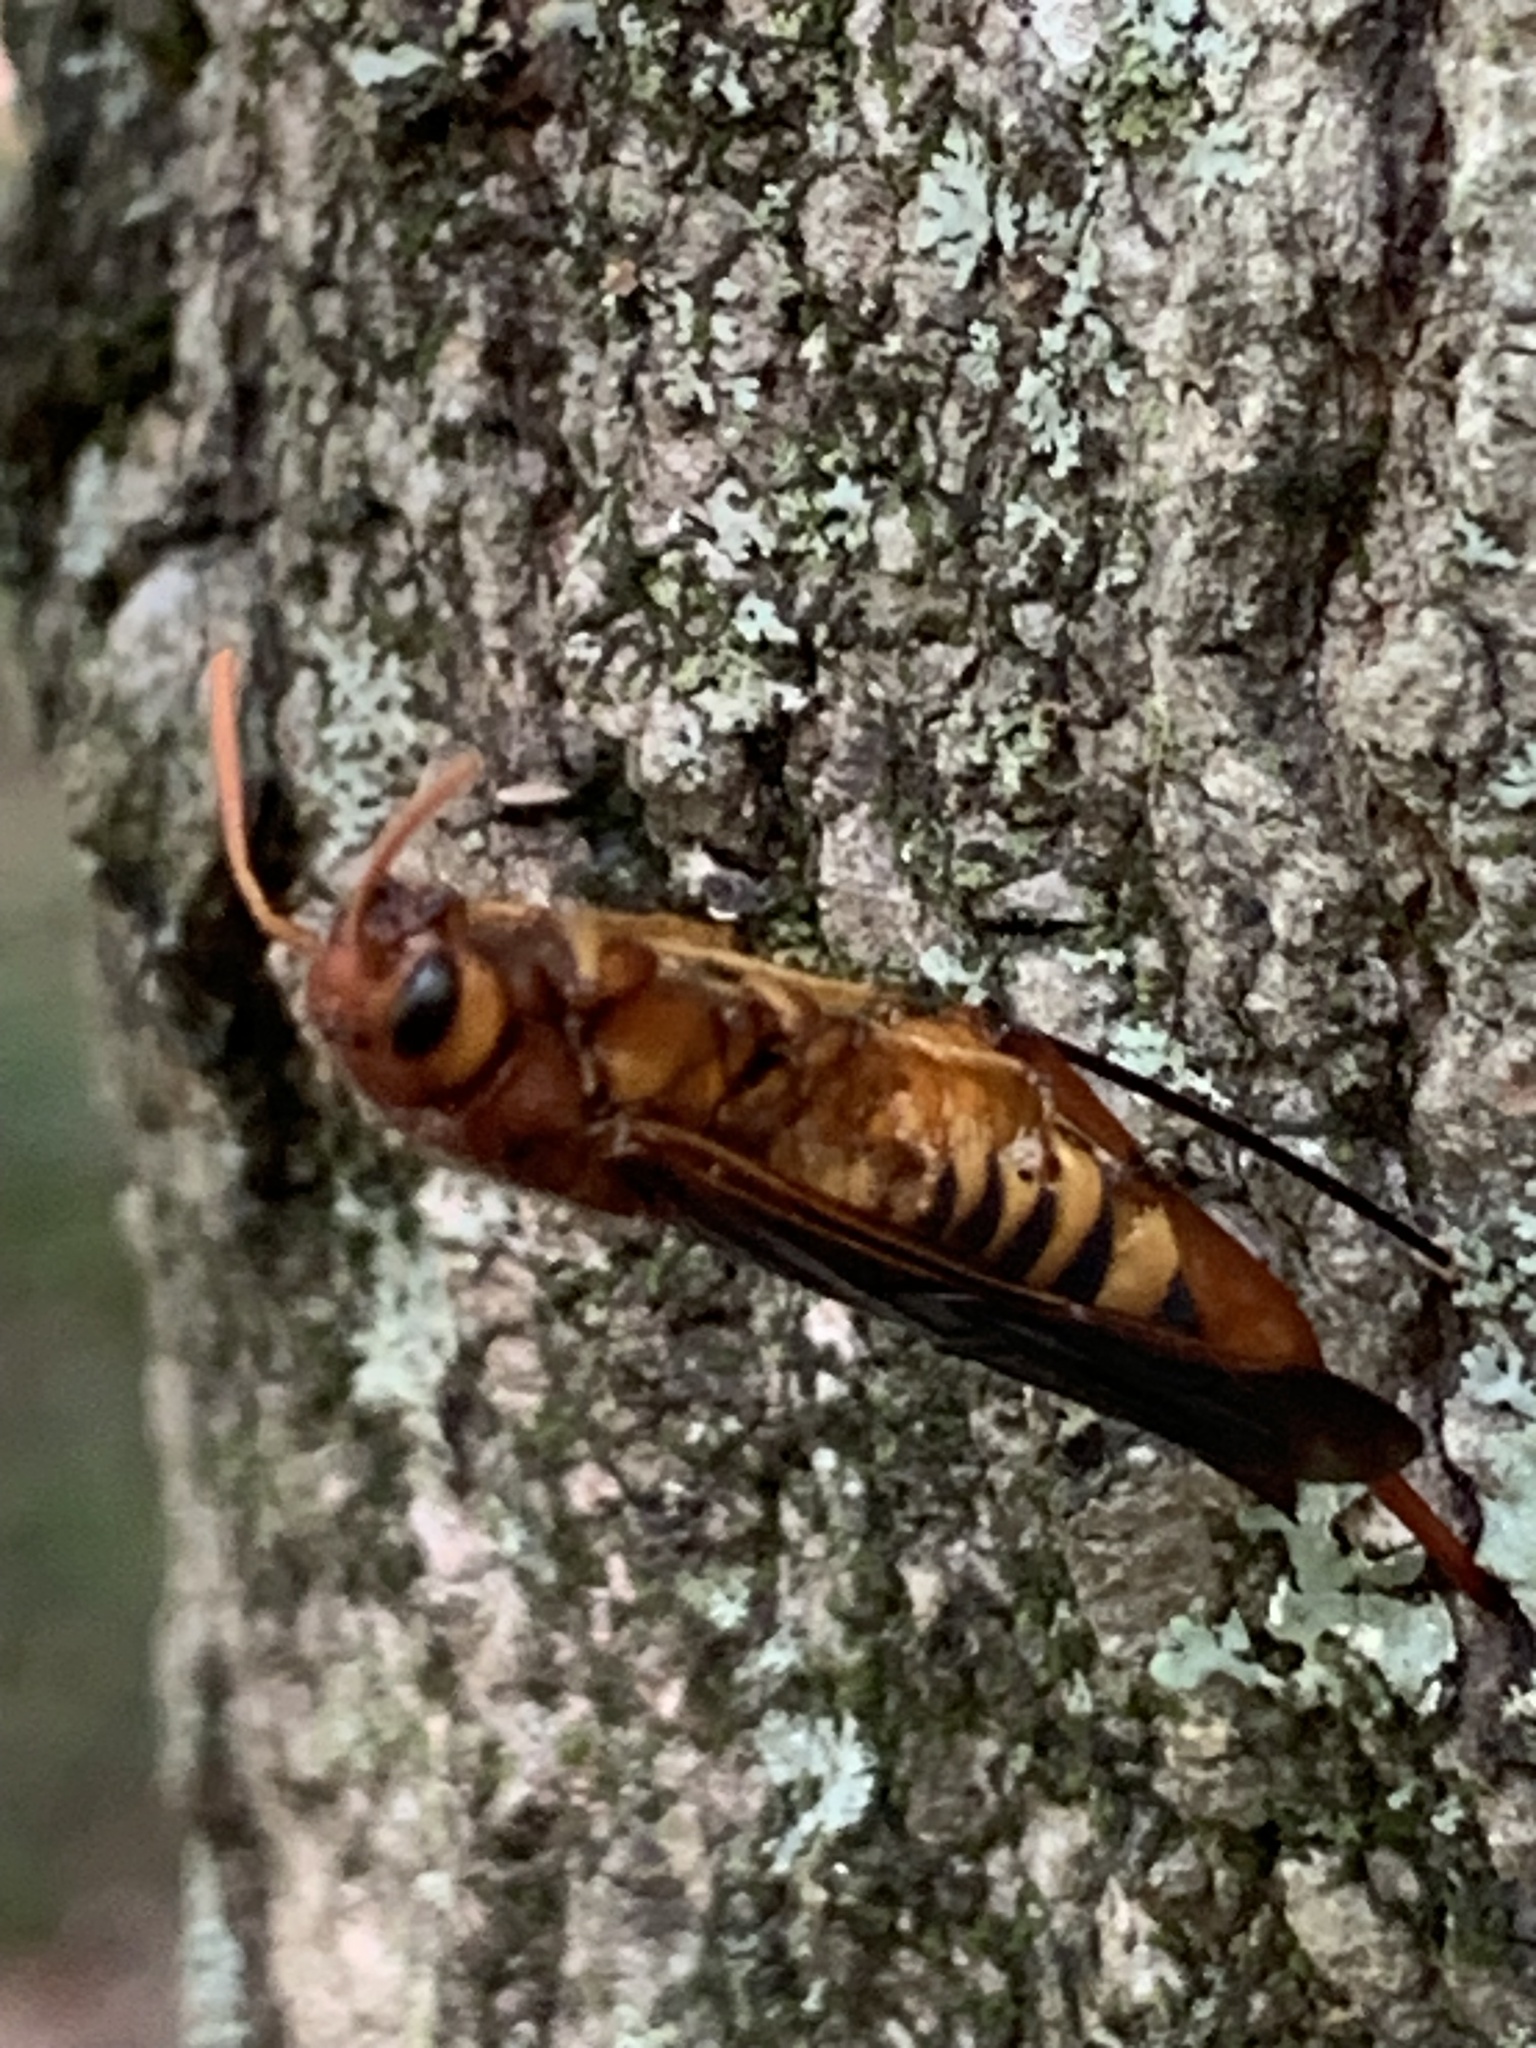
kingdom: Animalia
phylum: Arthropoda
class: Insecta
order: Hymenoptera
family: Siricidae
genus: Tremex
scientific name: Tremex columba
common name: Wasp
